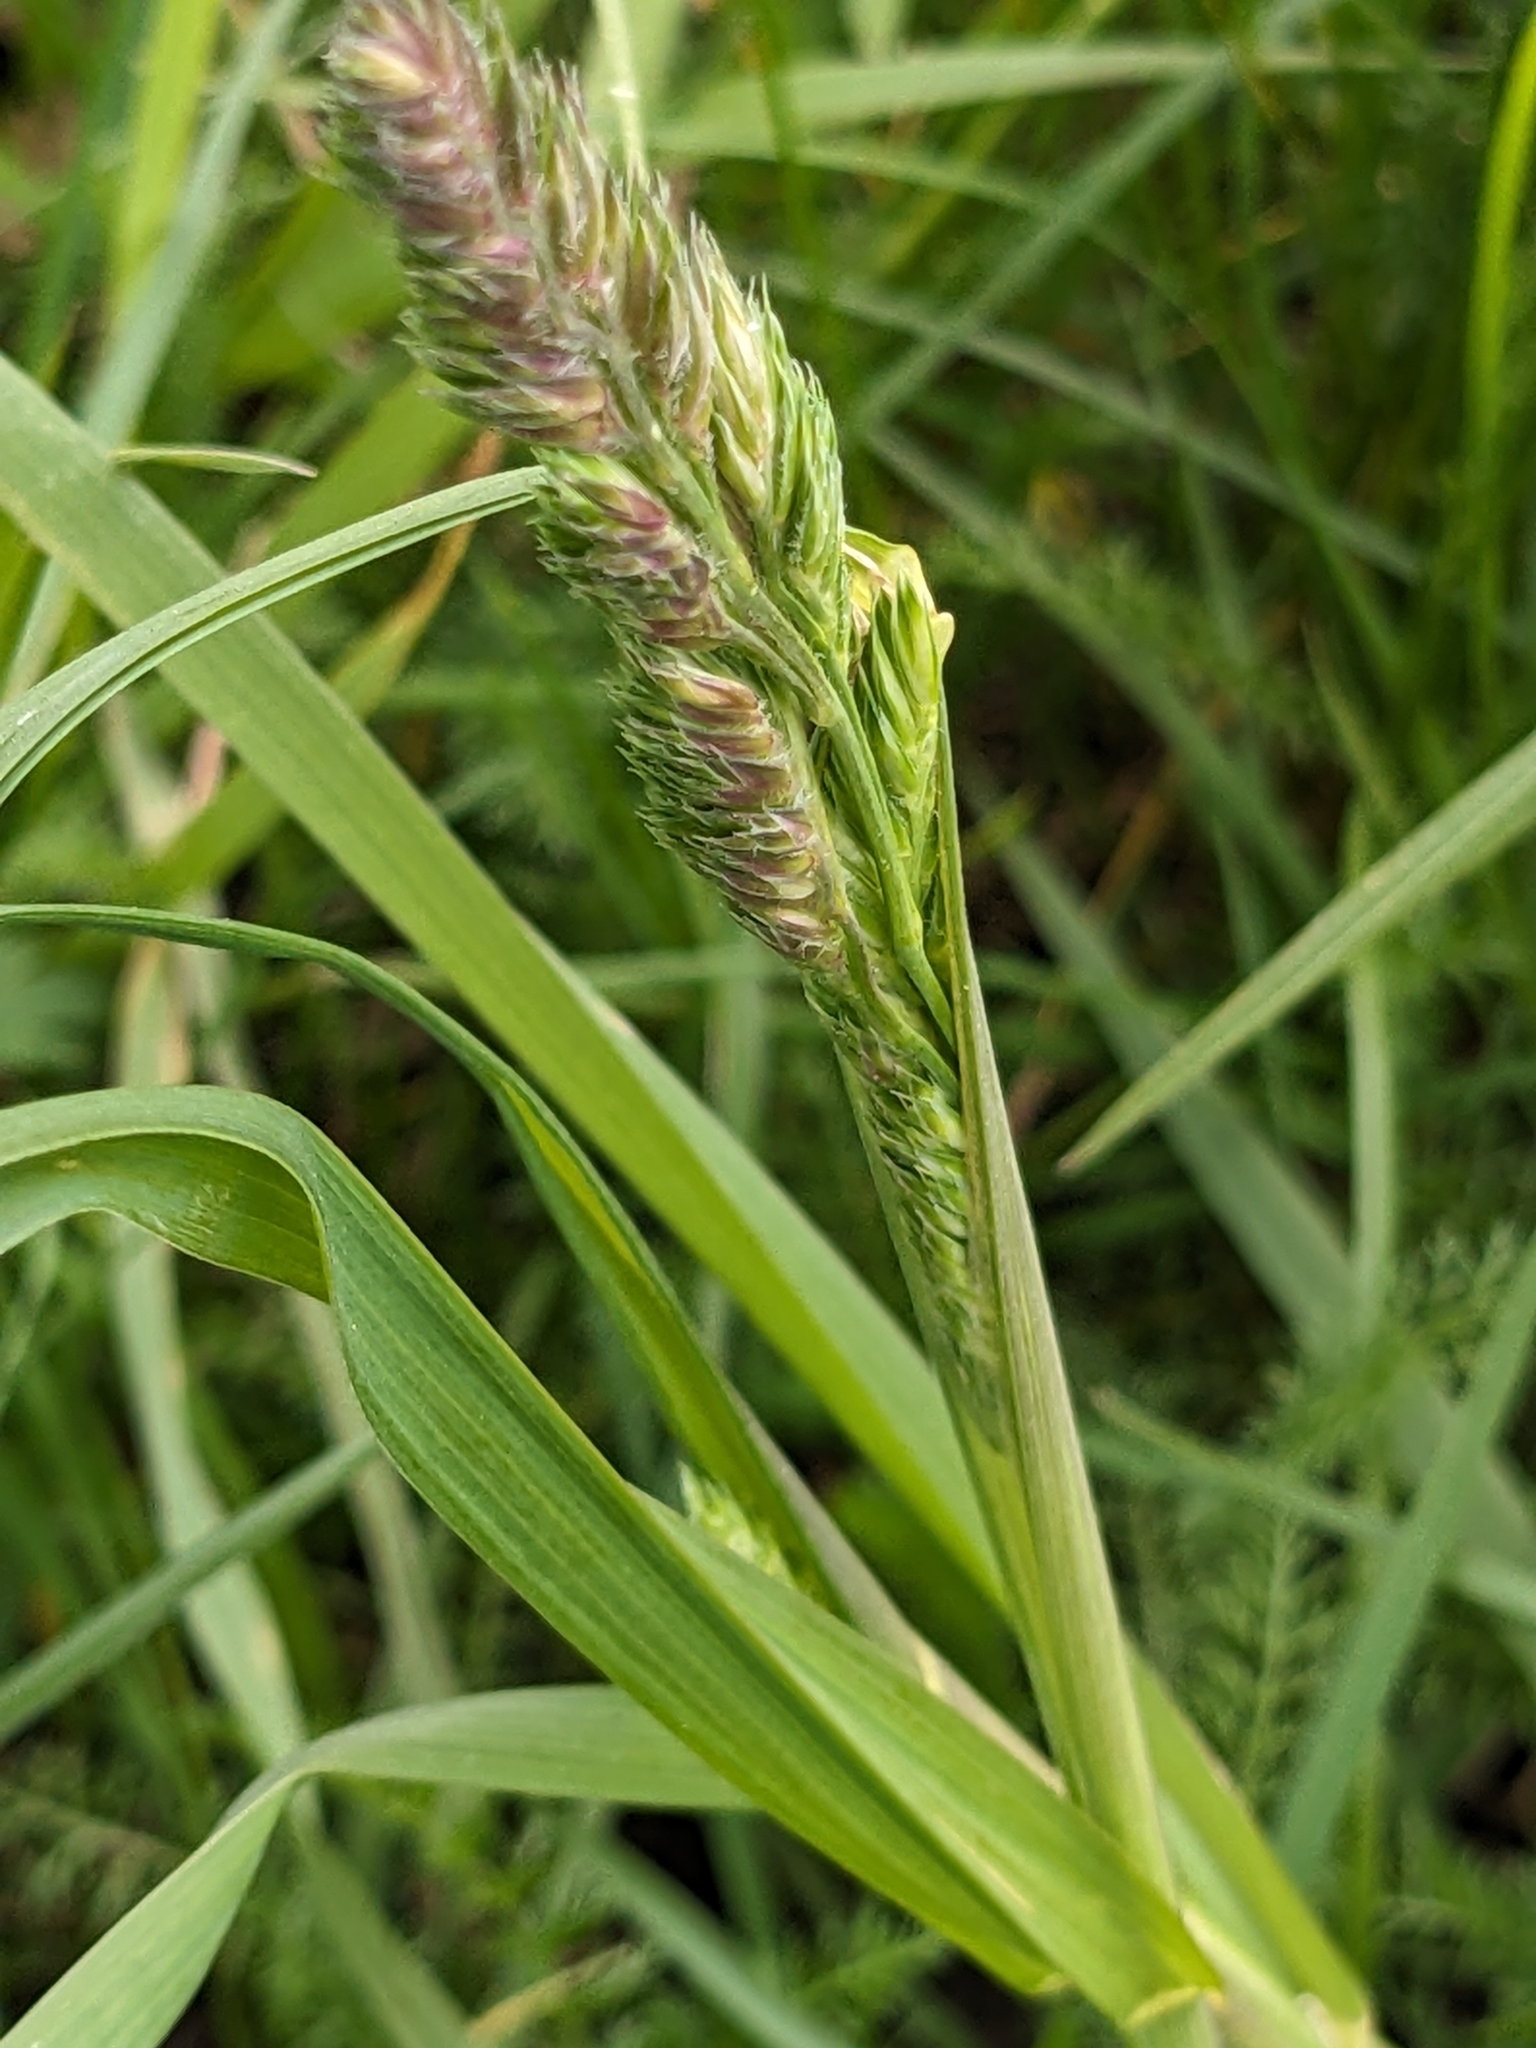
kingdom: Plantae
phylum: Tracheophyta
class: Liliopsida
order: Poales
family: Poaceae
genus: Dactylis
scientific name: Dactylis glomerata
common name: Orchardgrass
